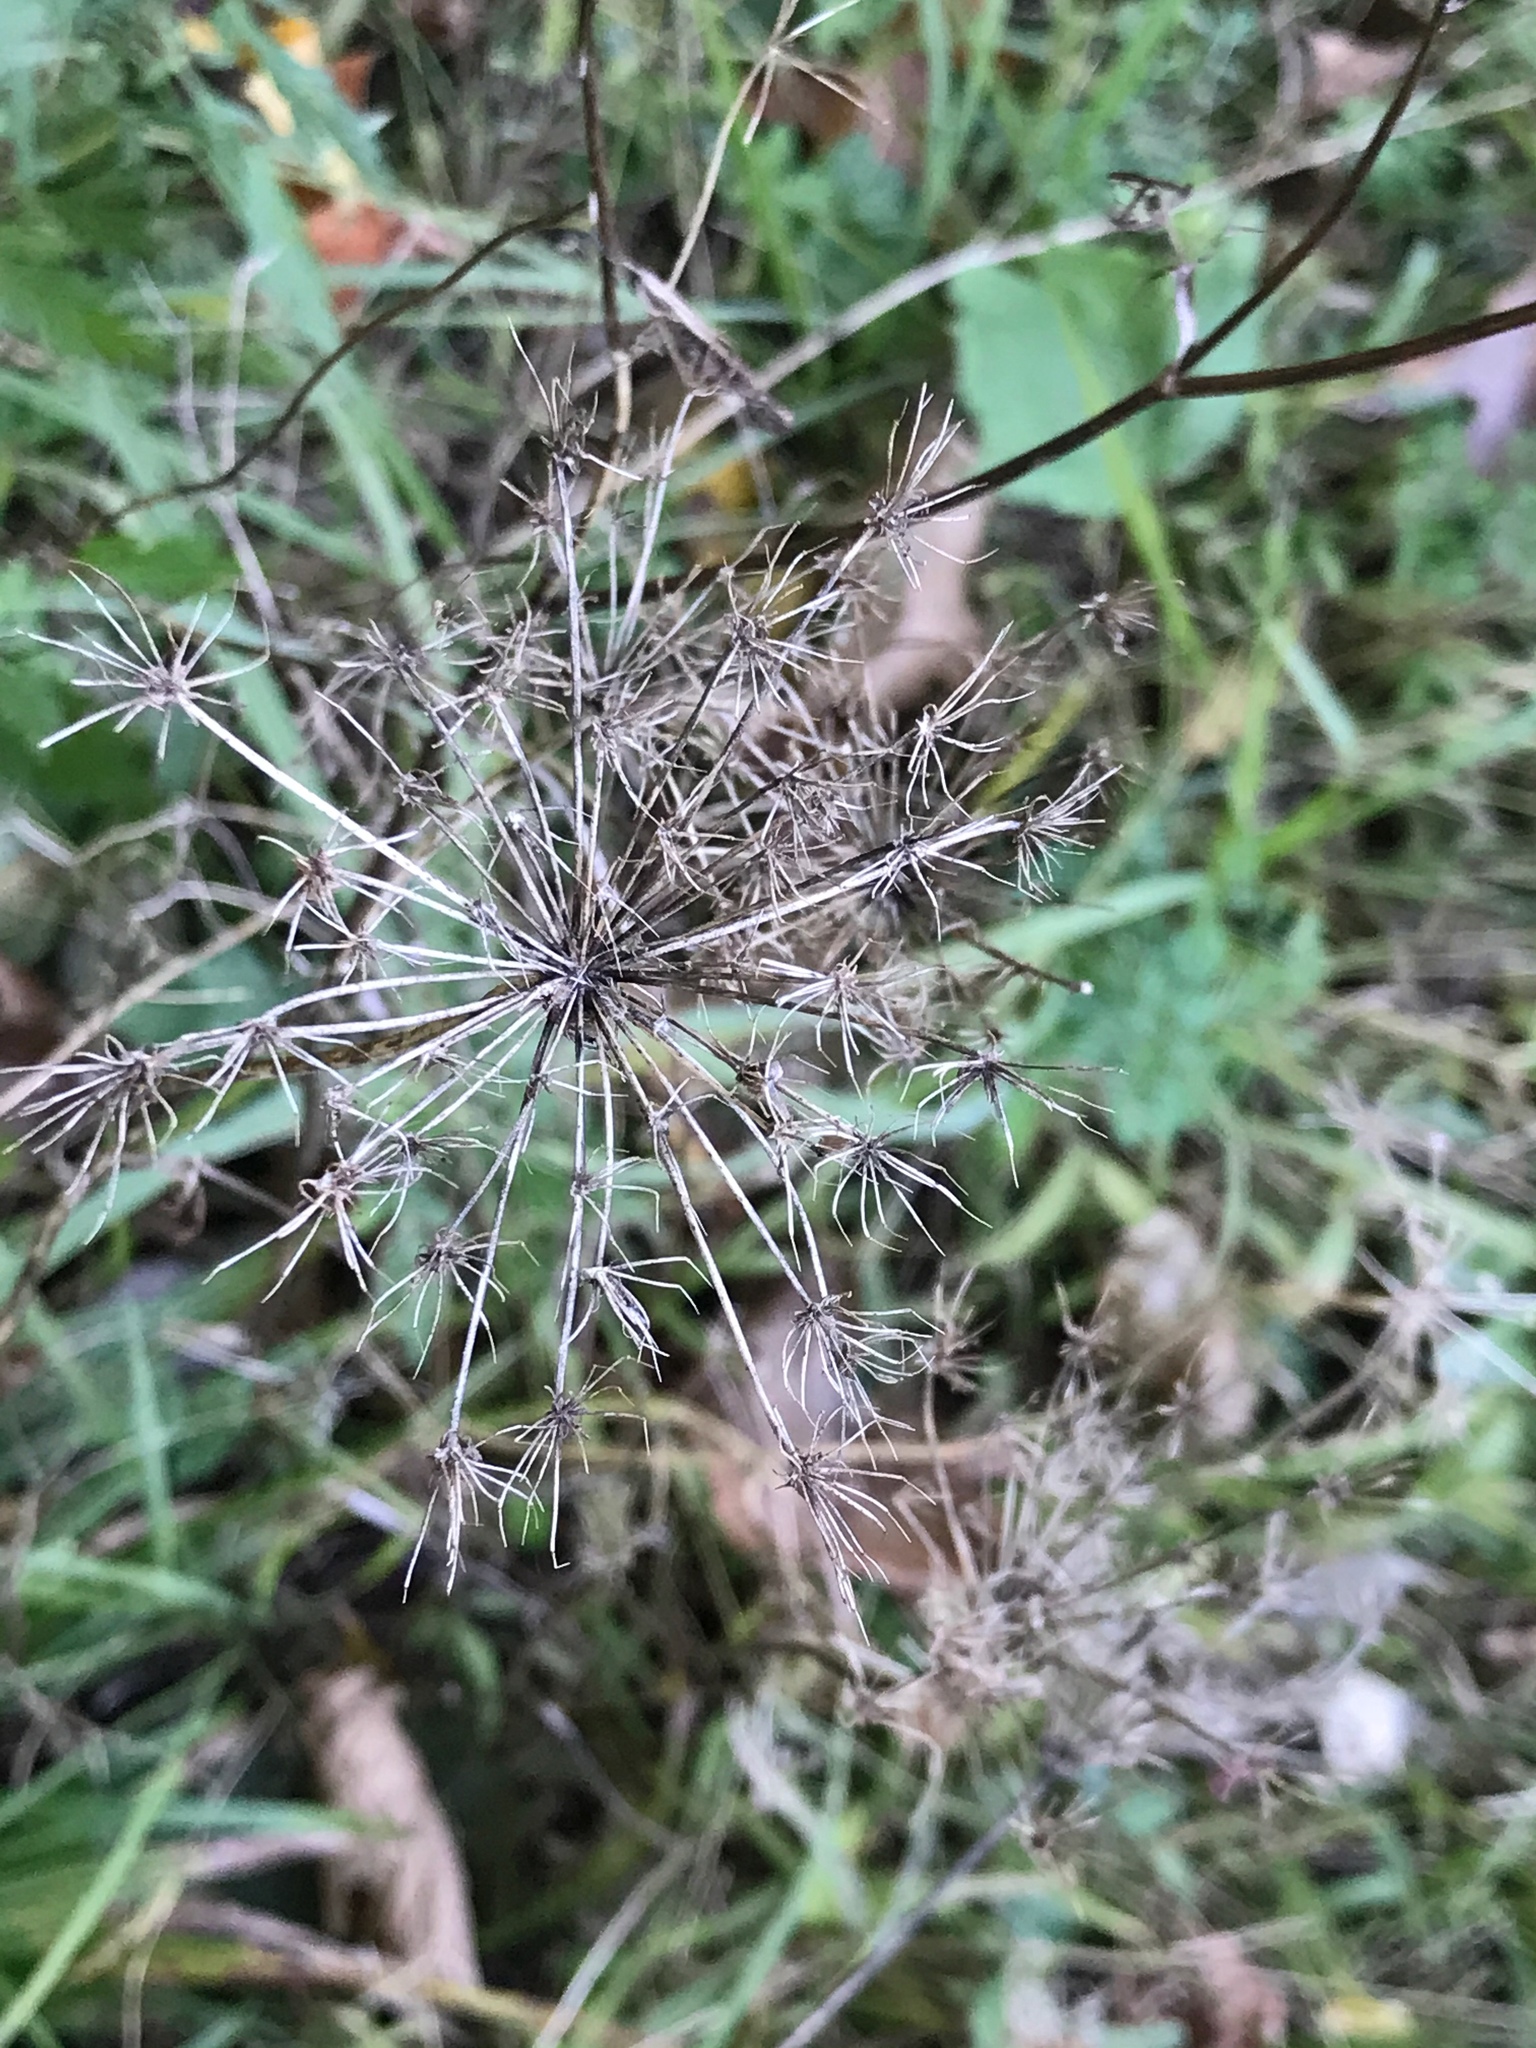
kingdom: Plantae
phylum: Tracheophyta
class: Magnoliopsida
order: Apiales
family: Apiaceae
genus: Daucus
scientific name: Daucus carota
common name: Wild carrot
